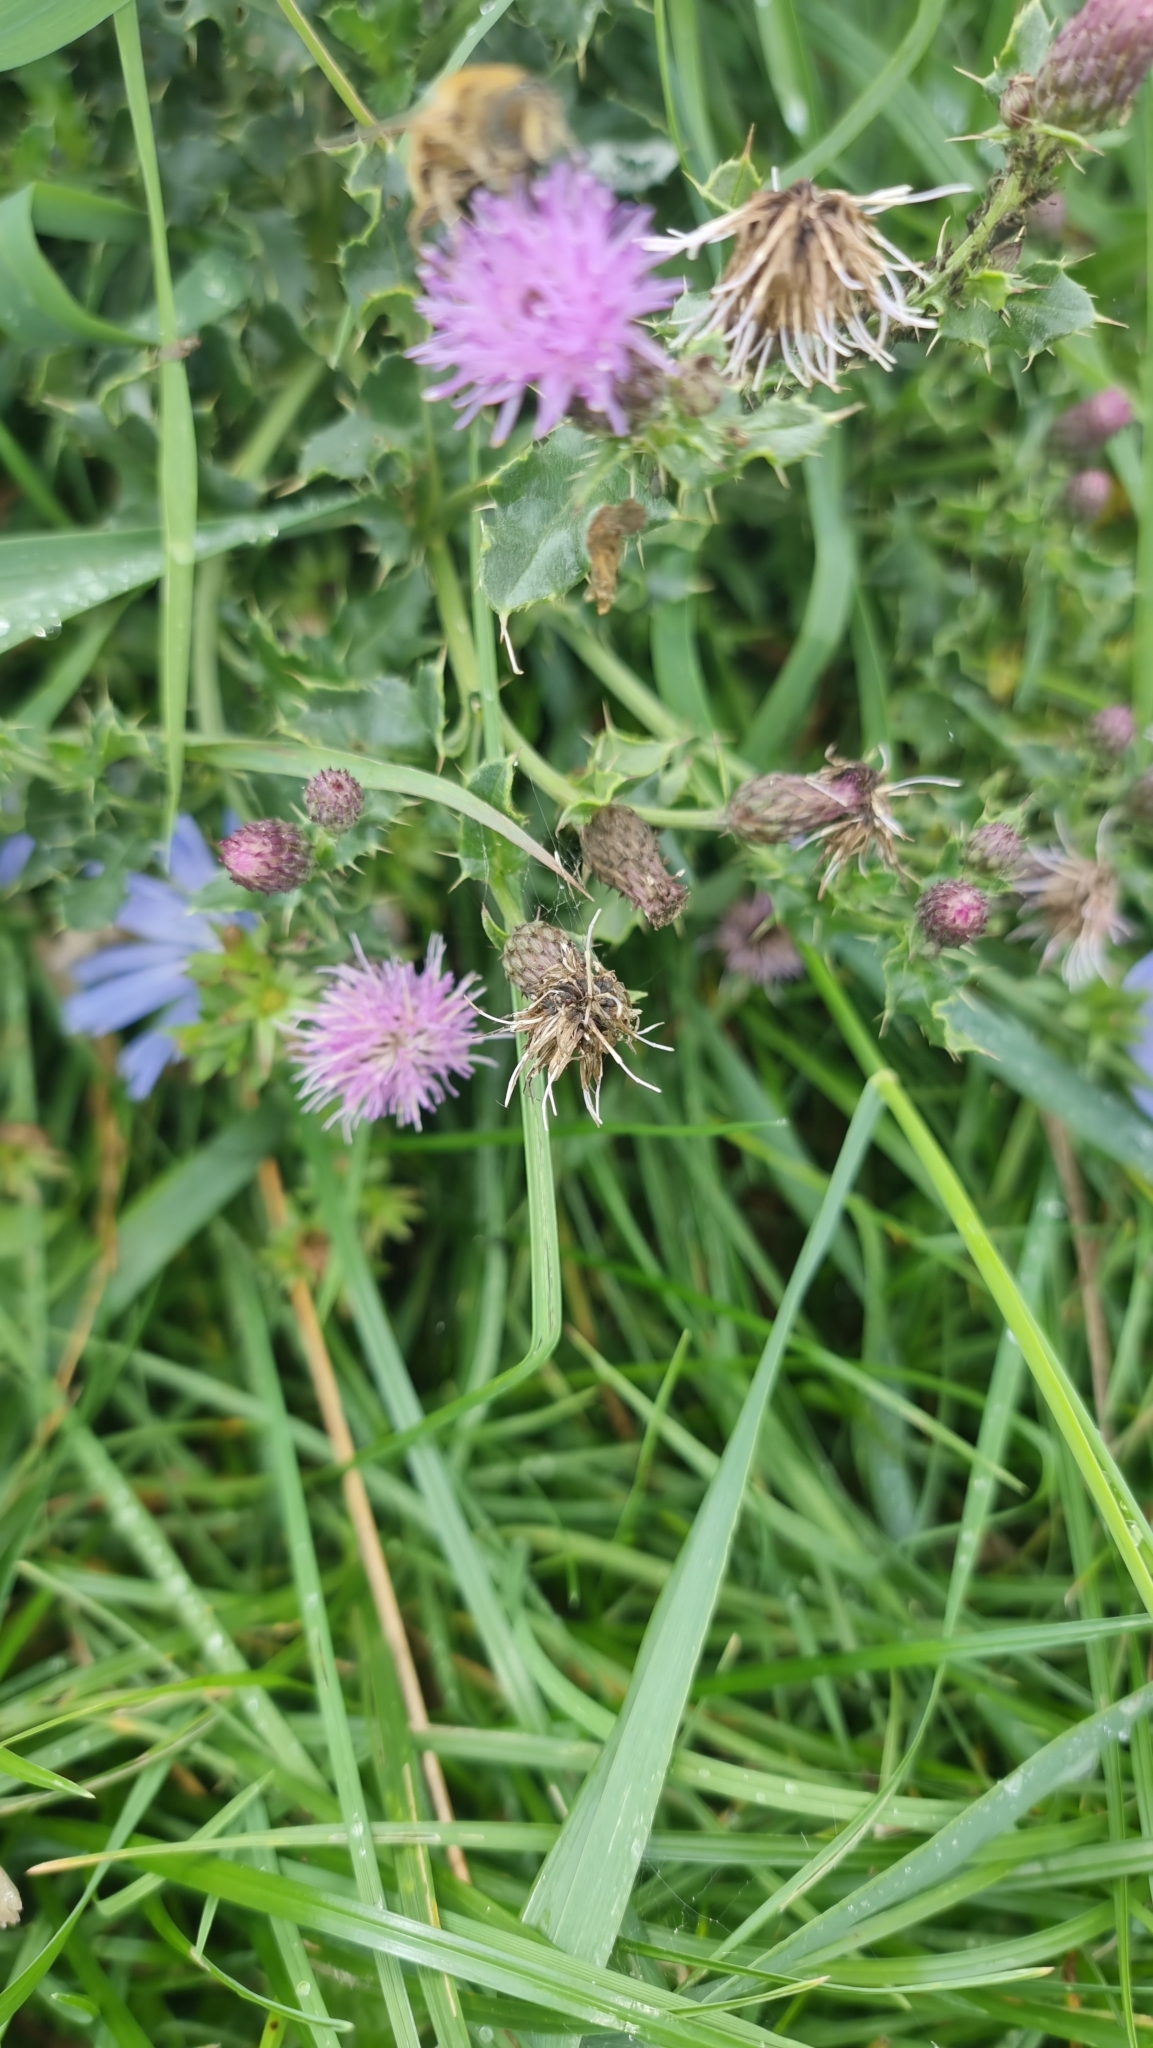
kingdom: Plantae
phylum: Tracheophyta
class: Magnoliopsida
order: Asterales
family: Asteraceae
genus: Cirsium
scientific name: Cirsium arvense
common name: Creeping thistle
